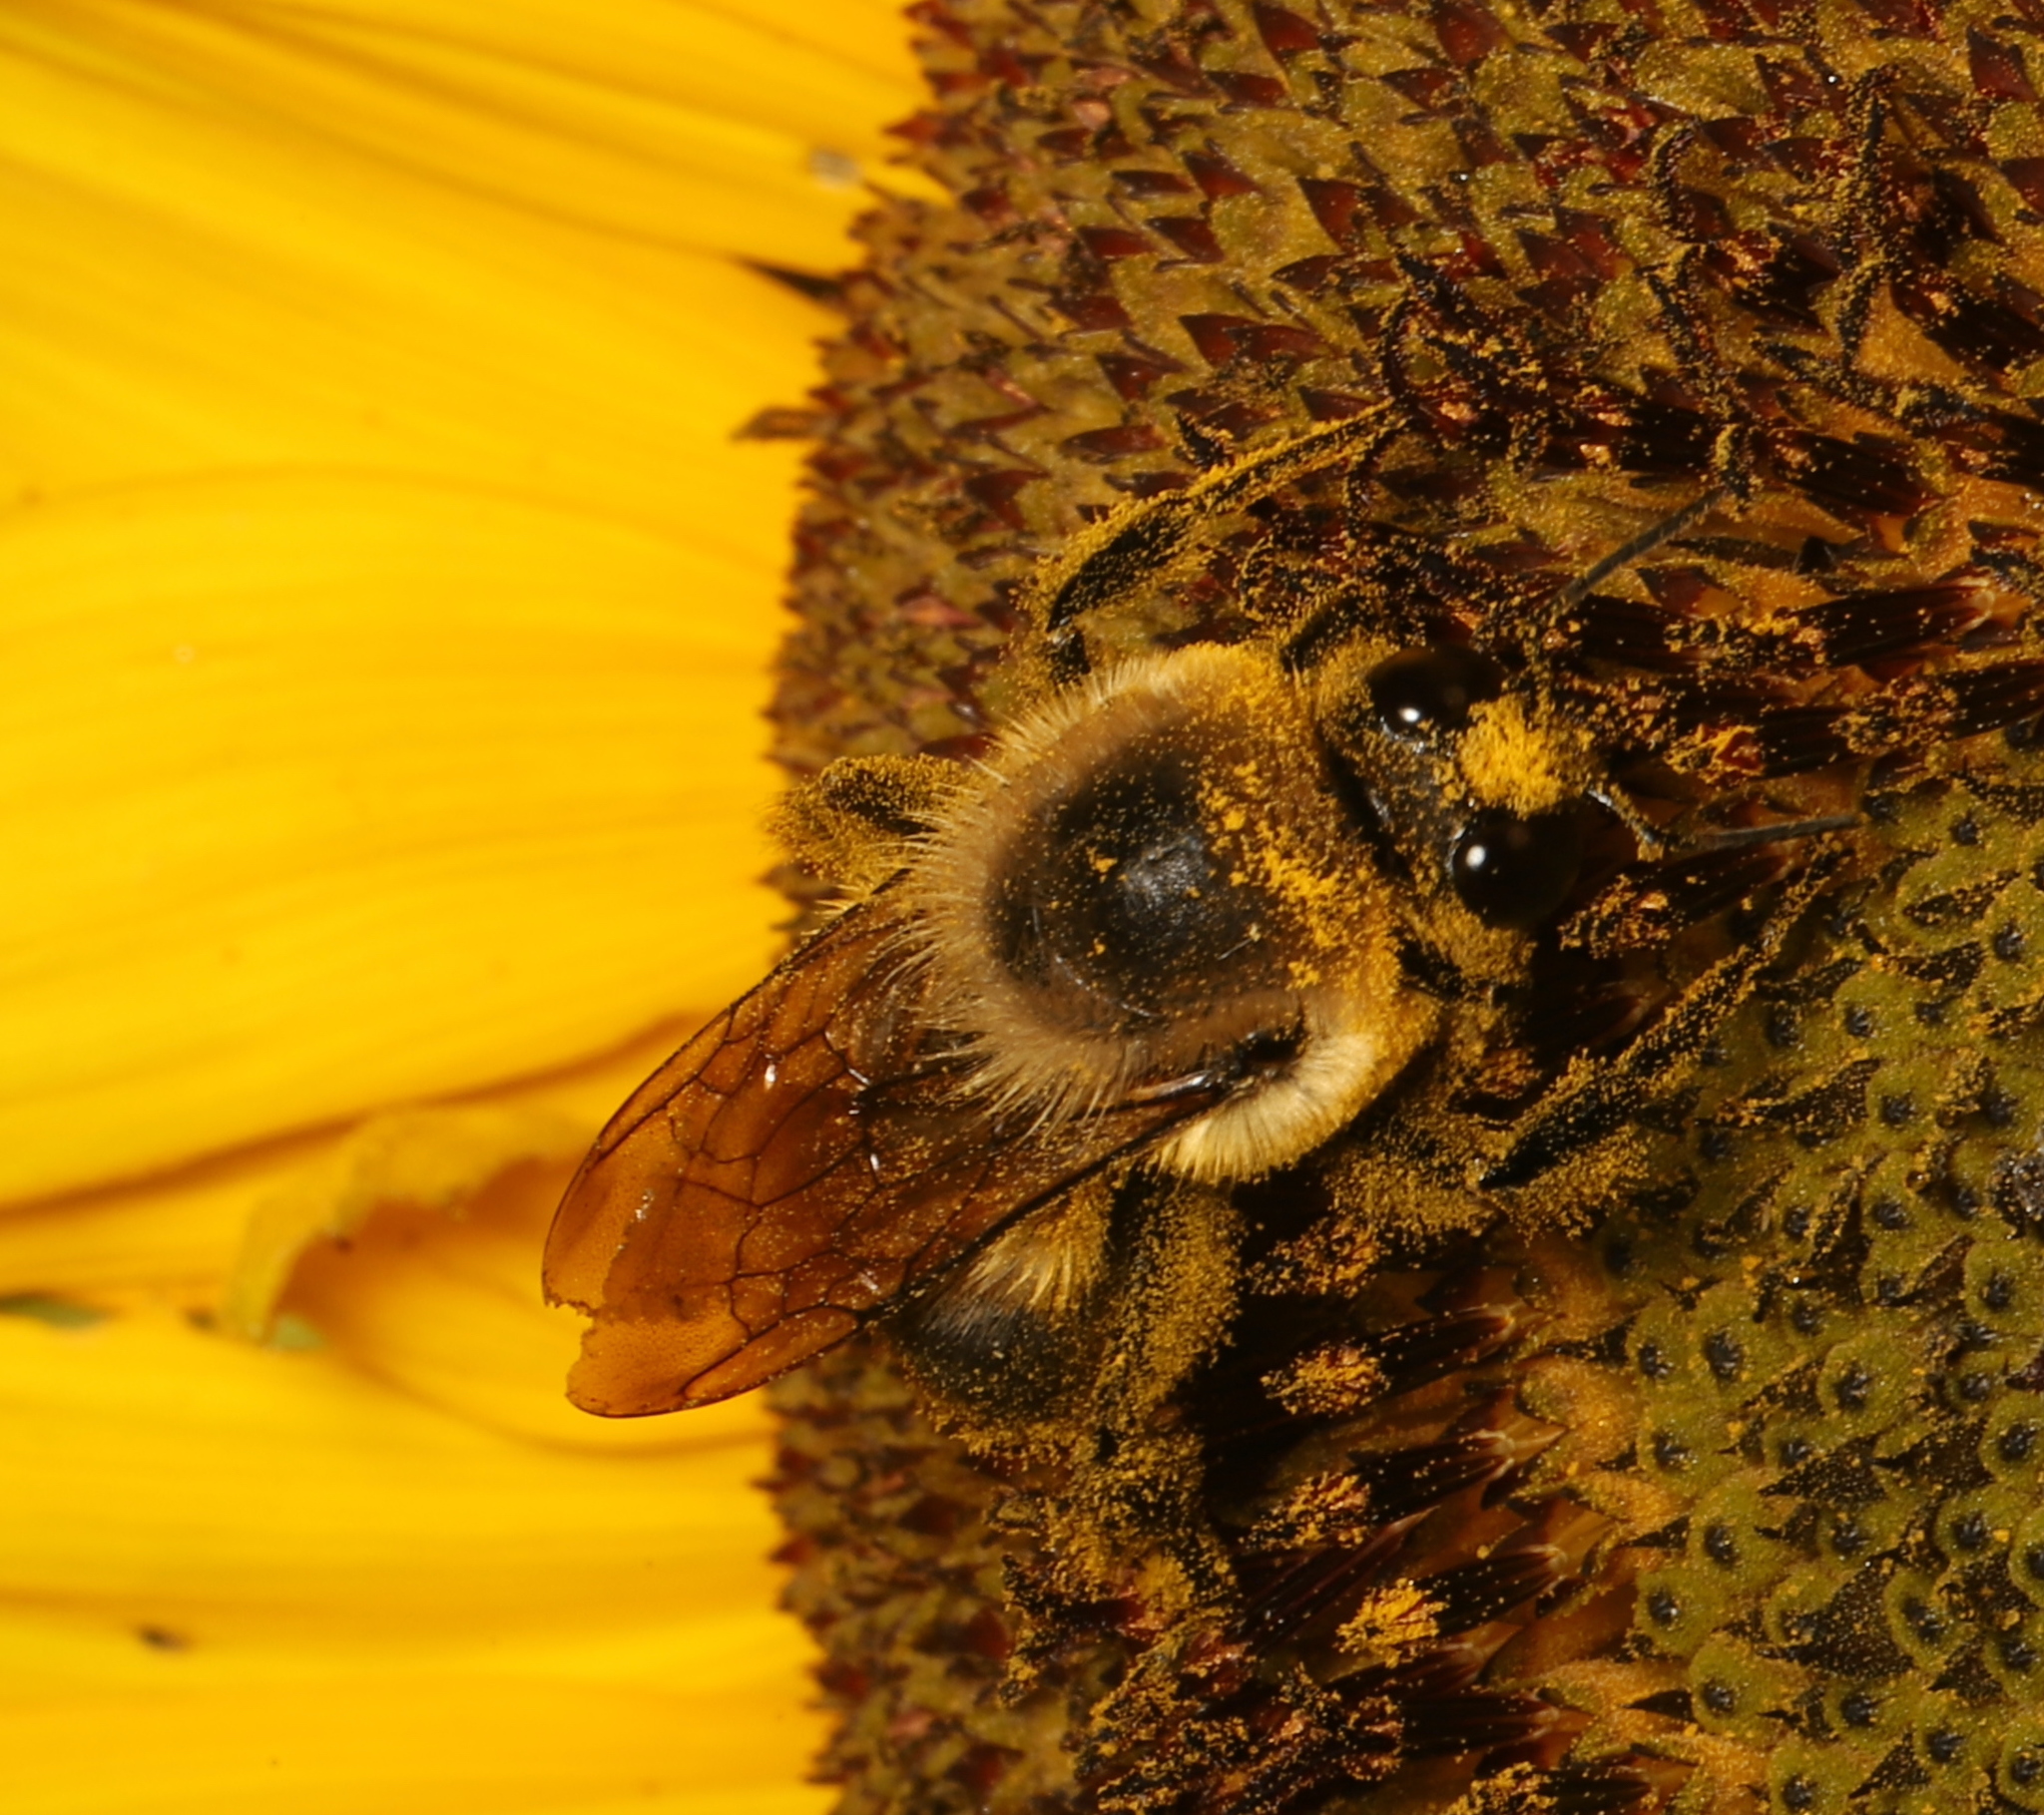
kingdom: Animalia
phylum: Arthropoda
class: Insecta
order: Hymenoptera
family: Apidae
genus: Bombus
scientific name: Bombus griseocollis
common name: Brown-belted bumble bee
